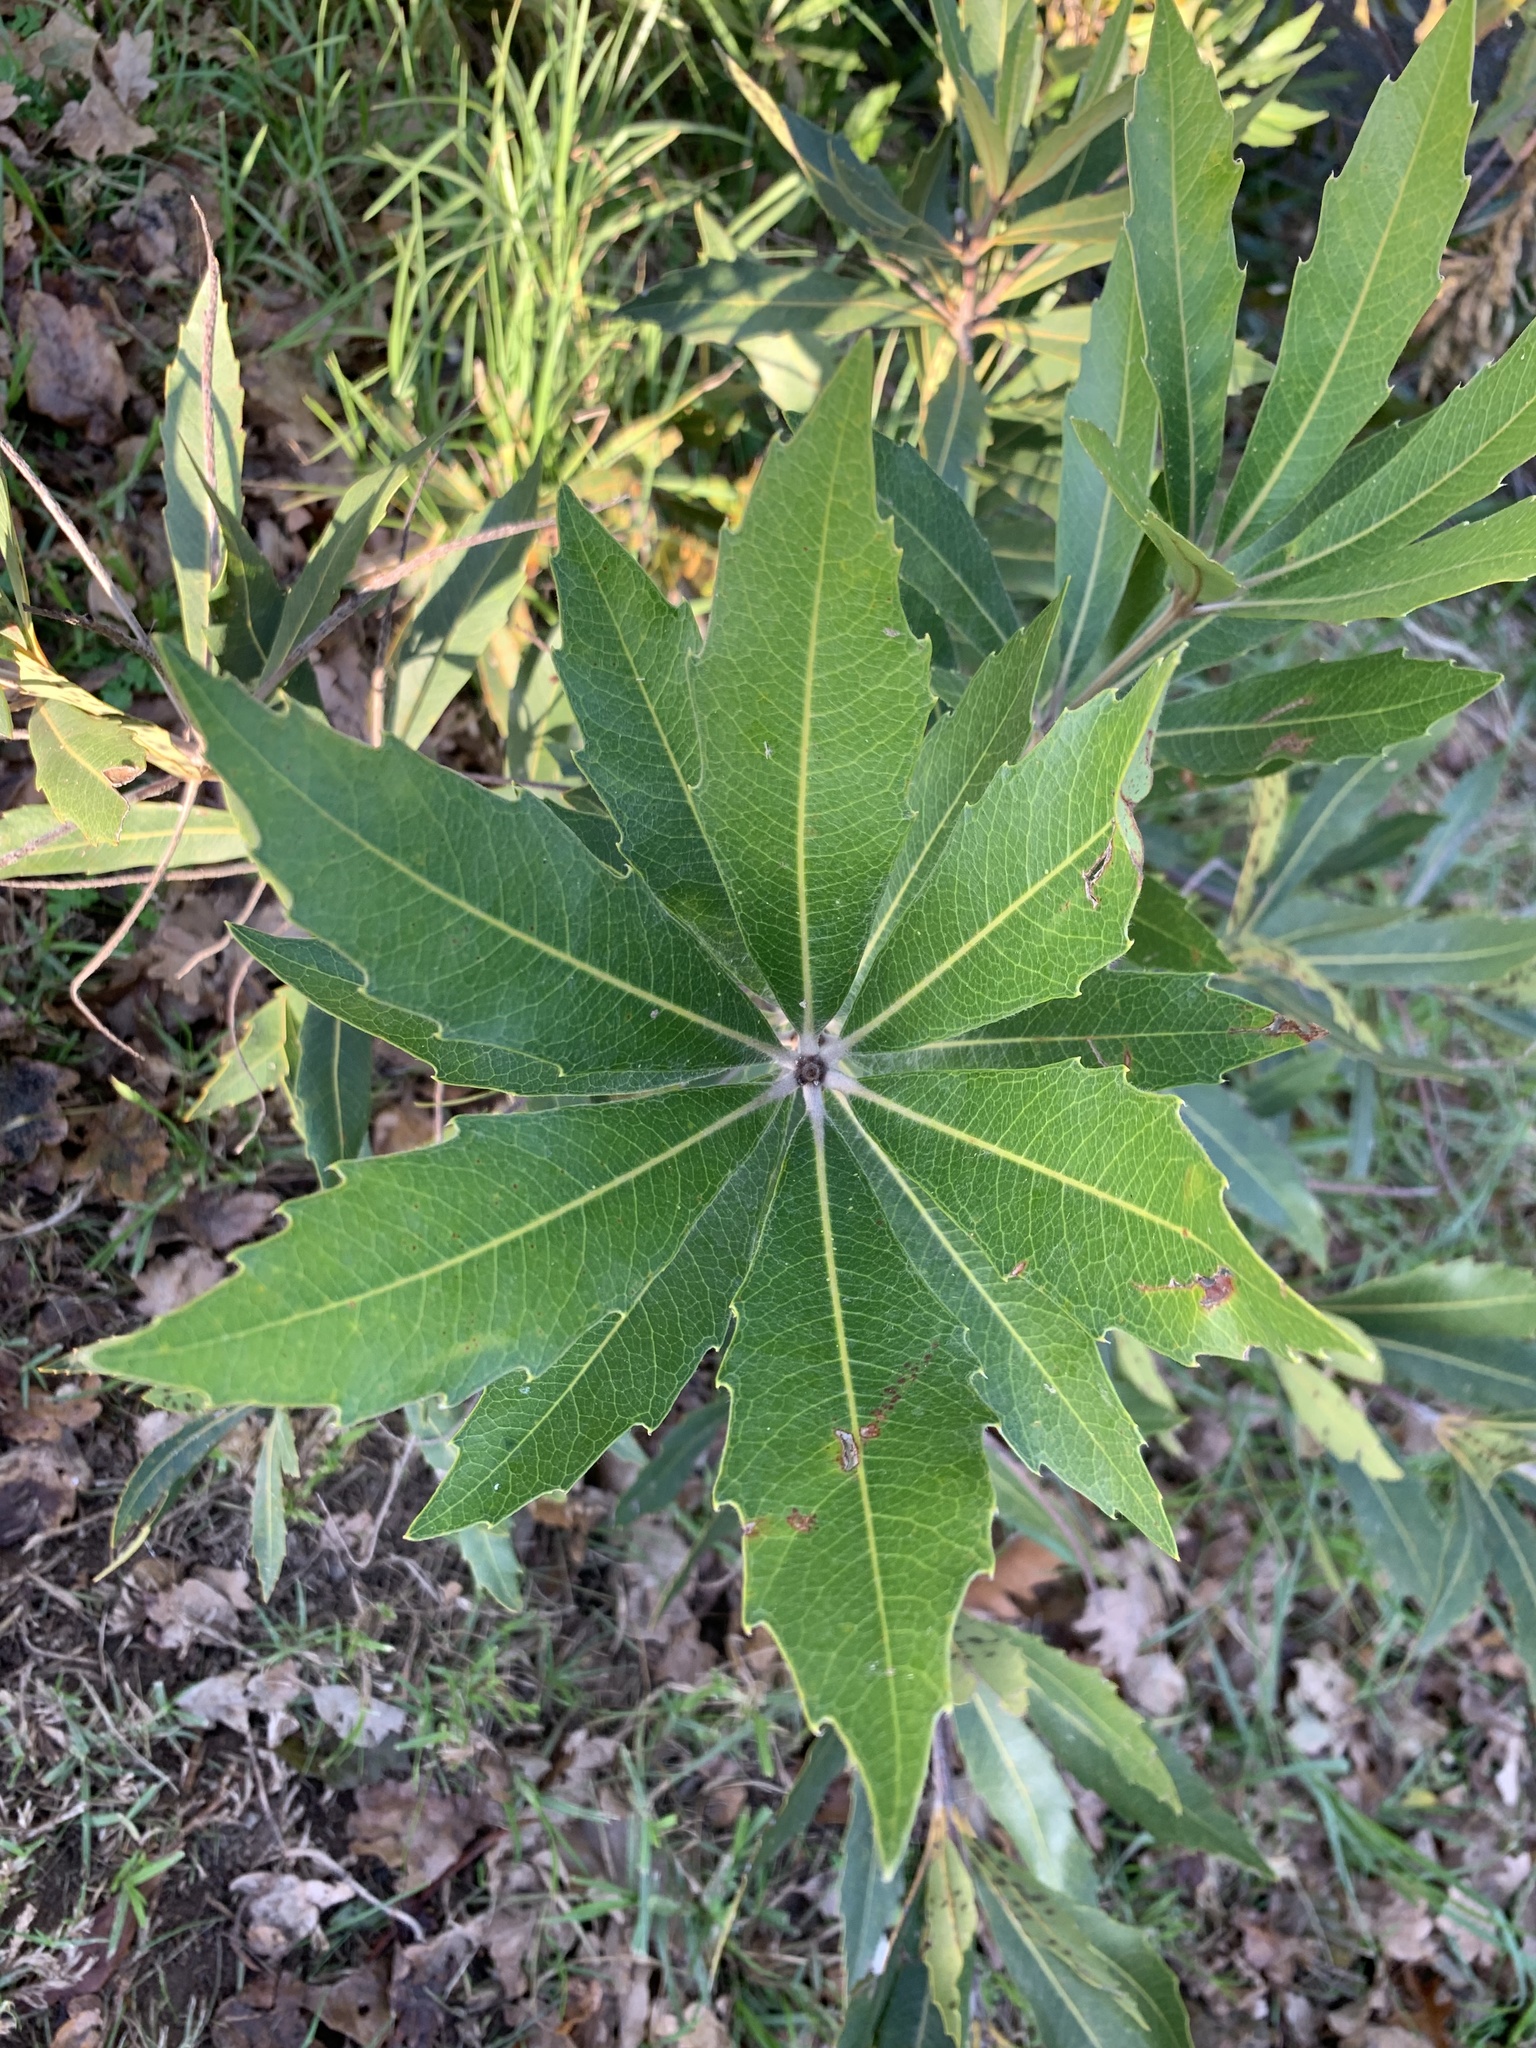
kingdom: Plantae
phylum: Tracheophyta
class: Magnoliopsida
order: Proteales
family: Proteaceae
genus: Brabejum
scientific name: Brabejum stellatifolium
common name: Wild almond
